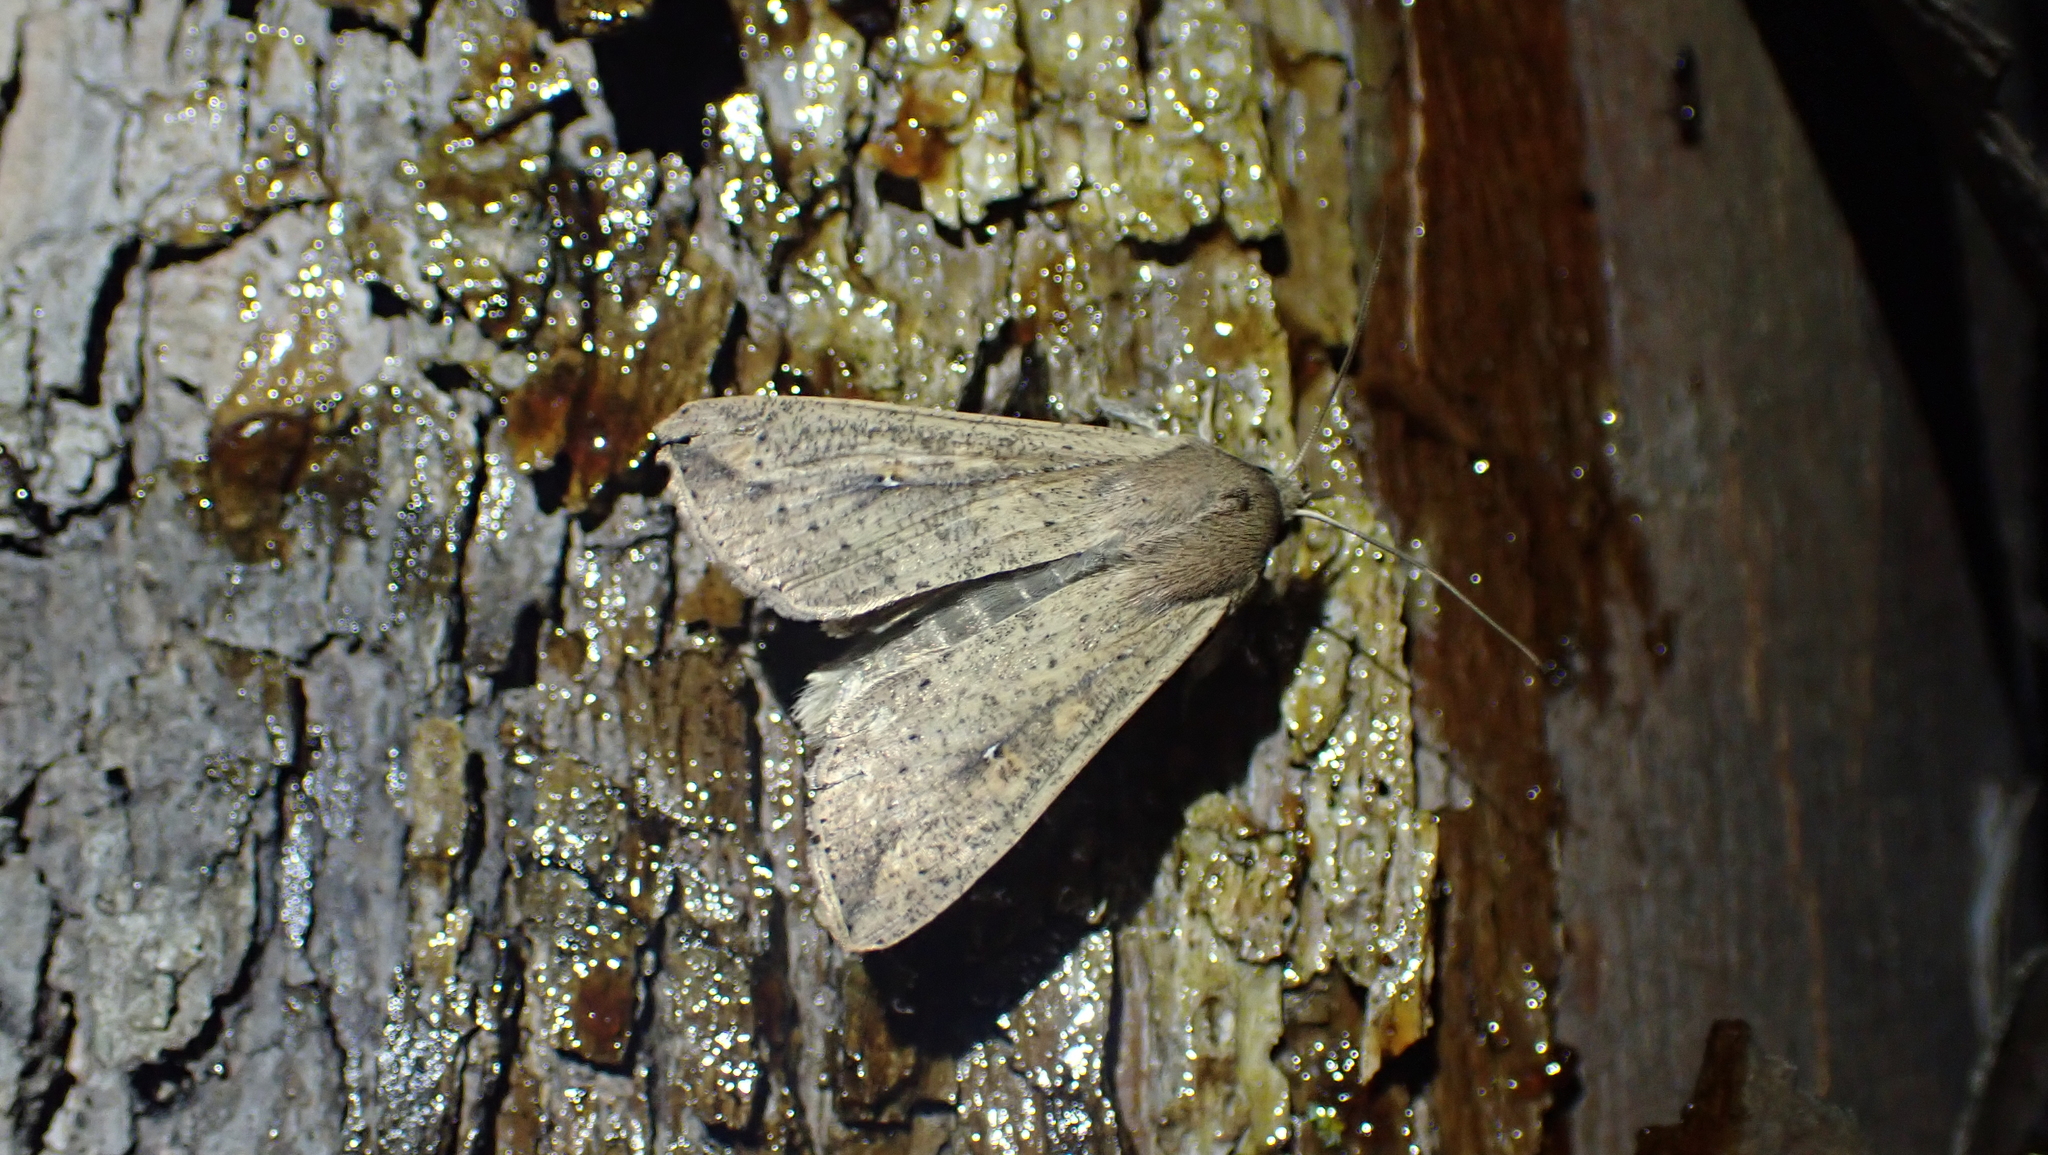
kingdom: Animalia
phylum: Arthropoda
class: Insecta
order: Lepidoptera
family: Noctuidae
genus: Mythimna
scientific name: Mythimna unipuncta
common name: White-speck
